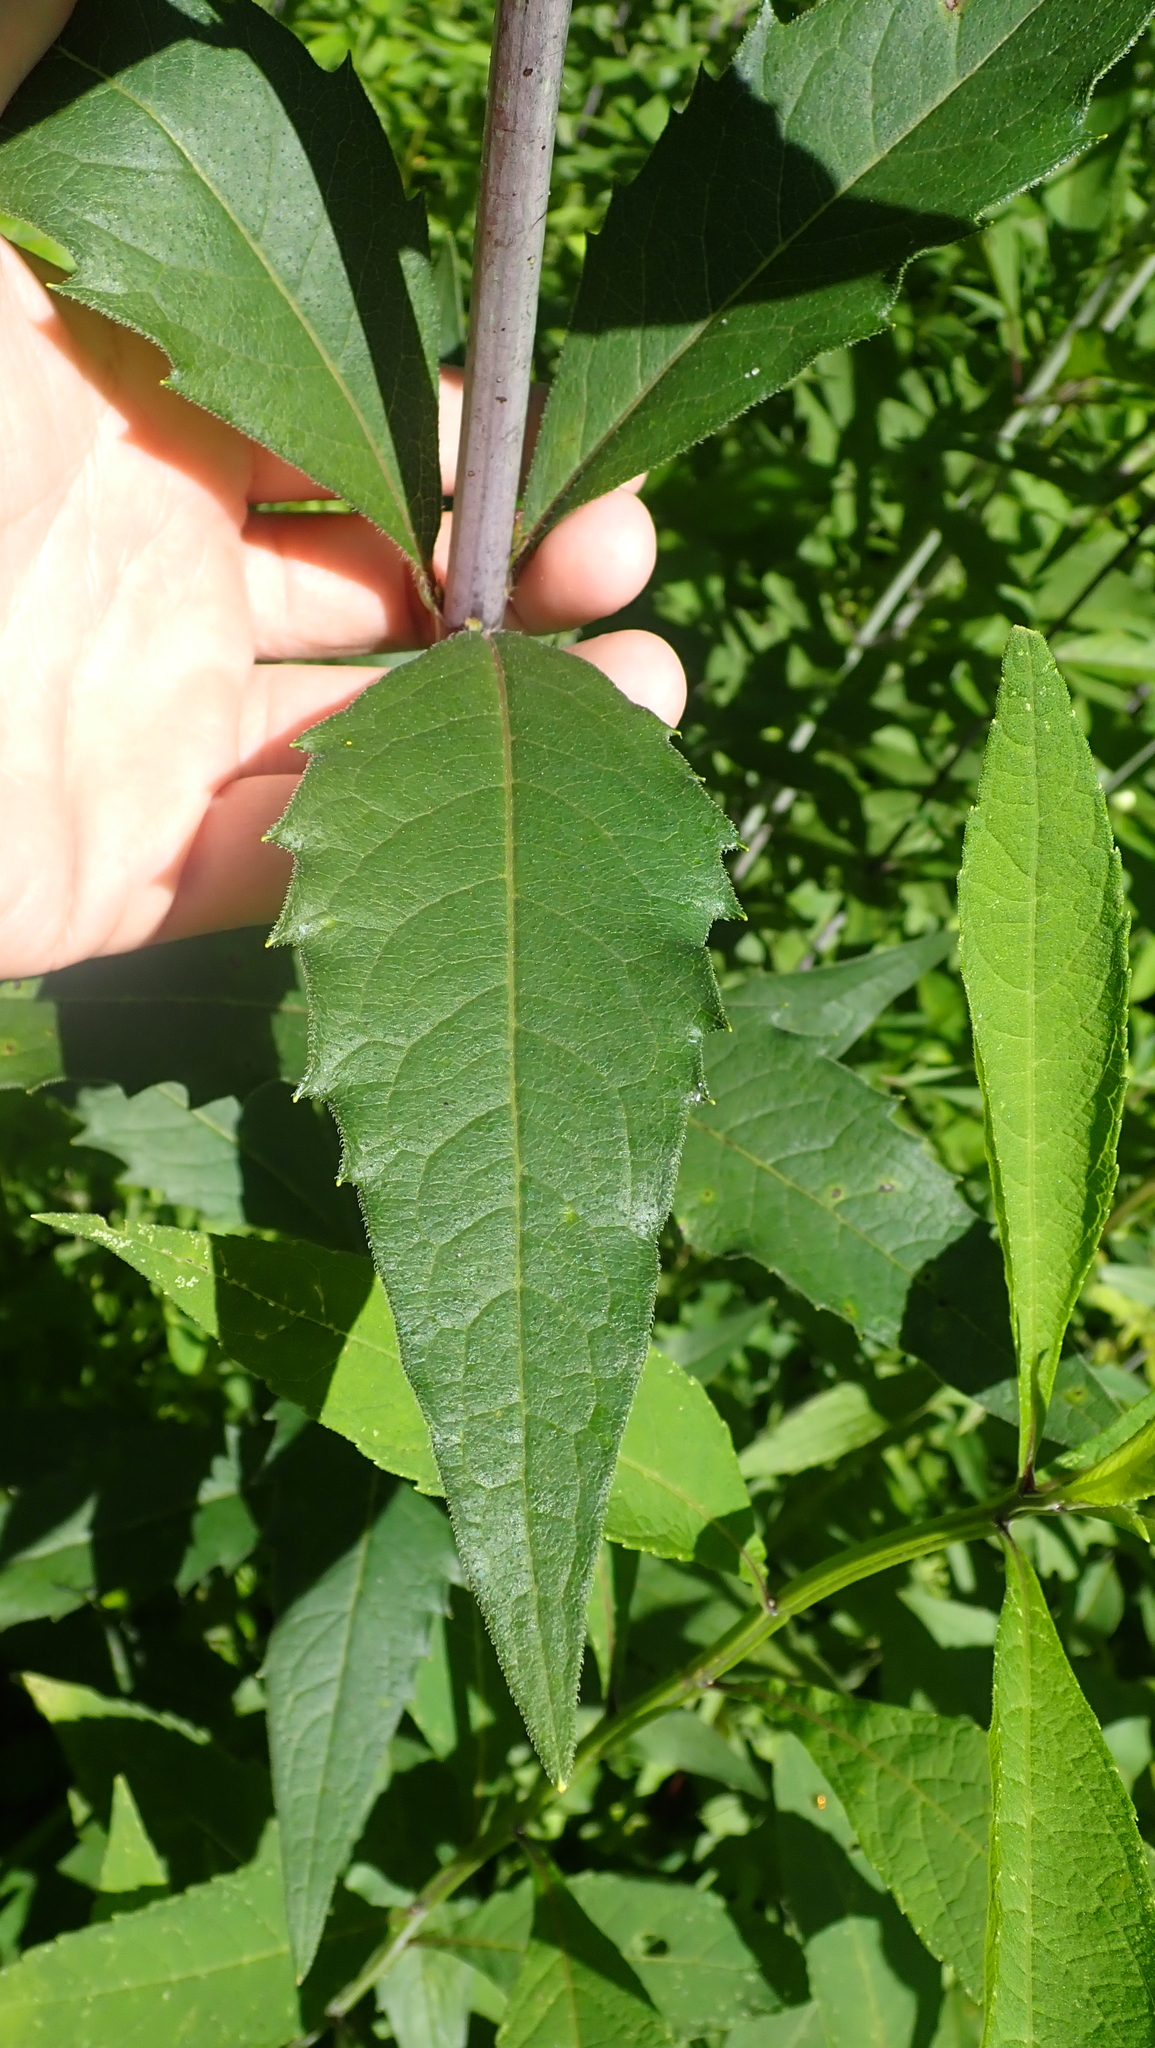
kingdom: Plantae
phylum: Tracheophyta
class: Magnoliopsida
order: Asterales
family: Asteraceae
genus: Silphium
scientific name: Silphium asteriscus
